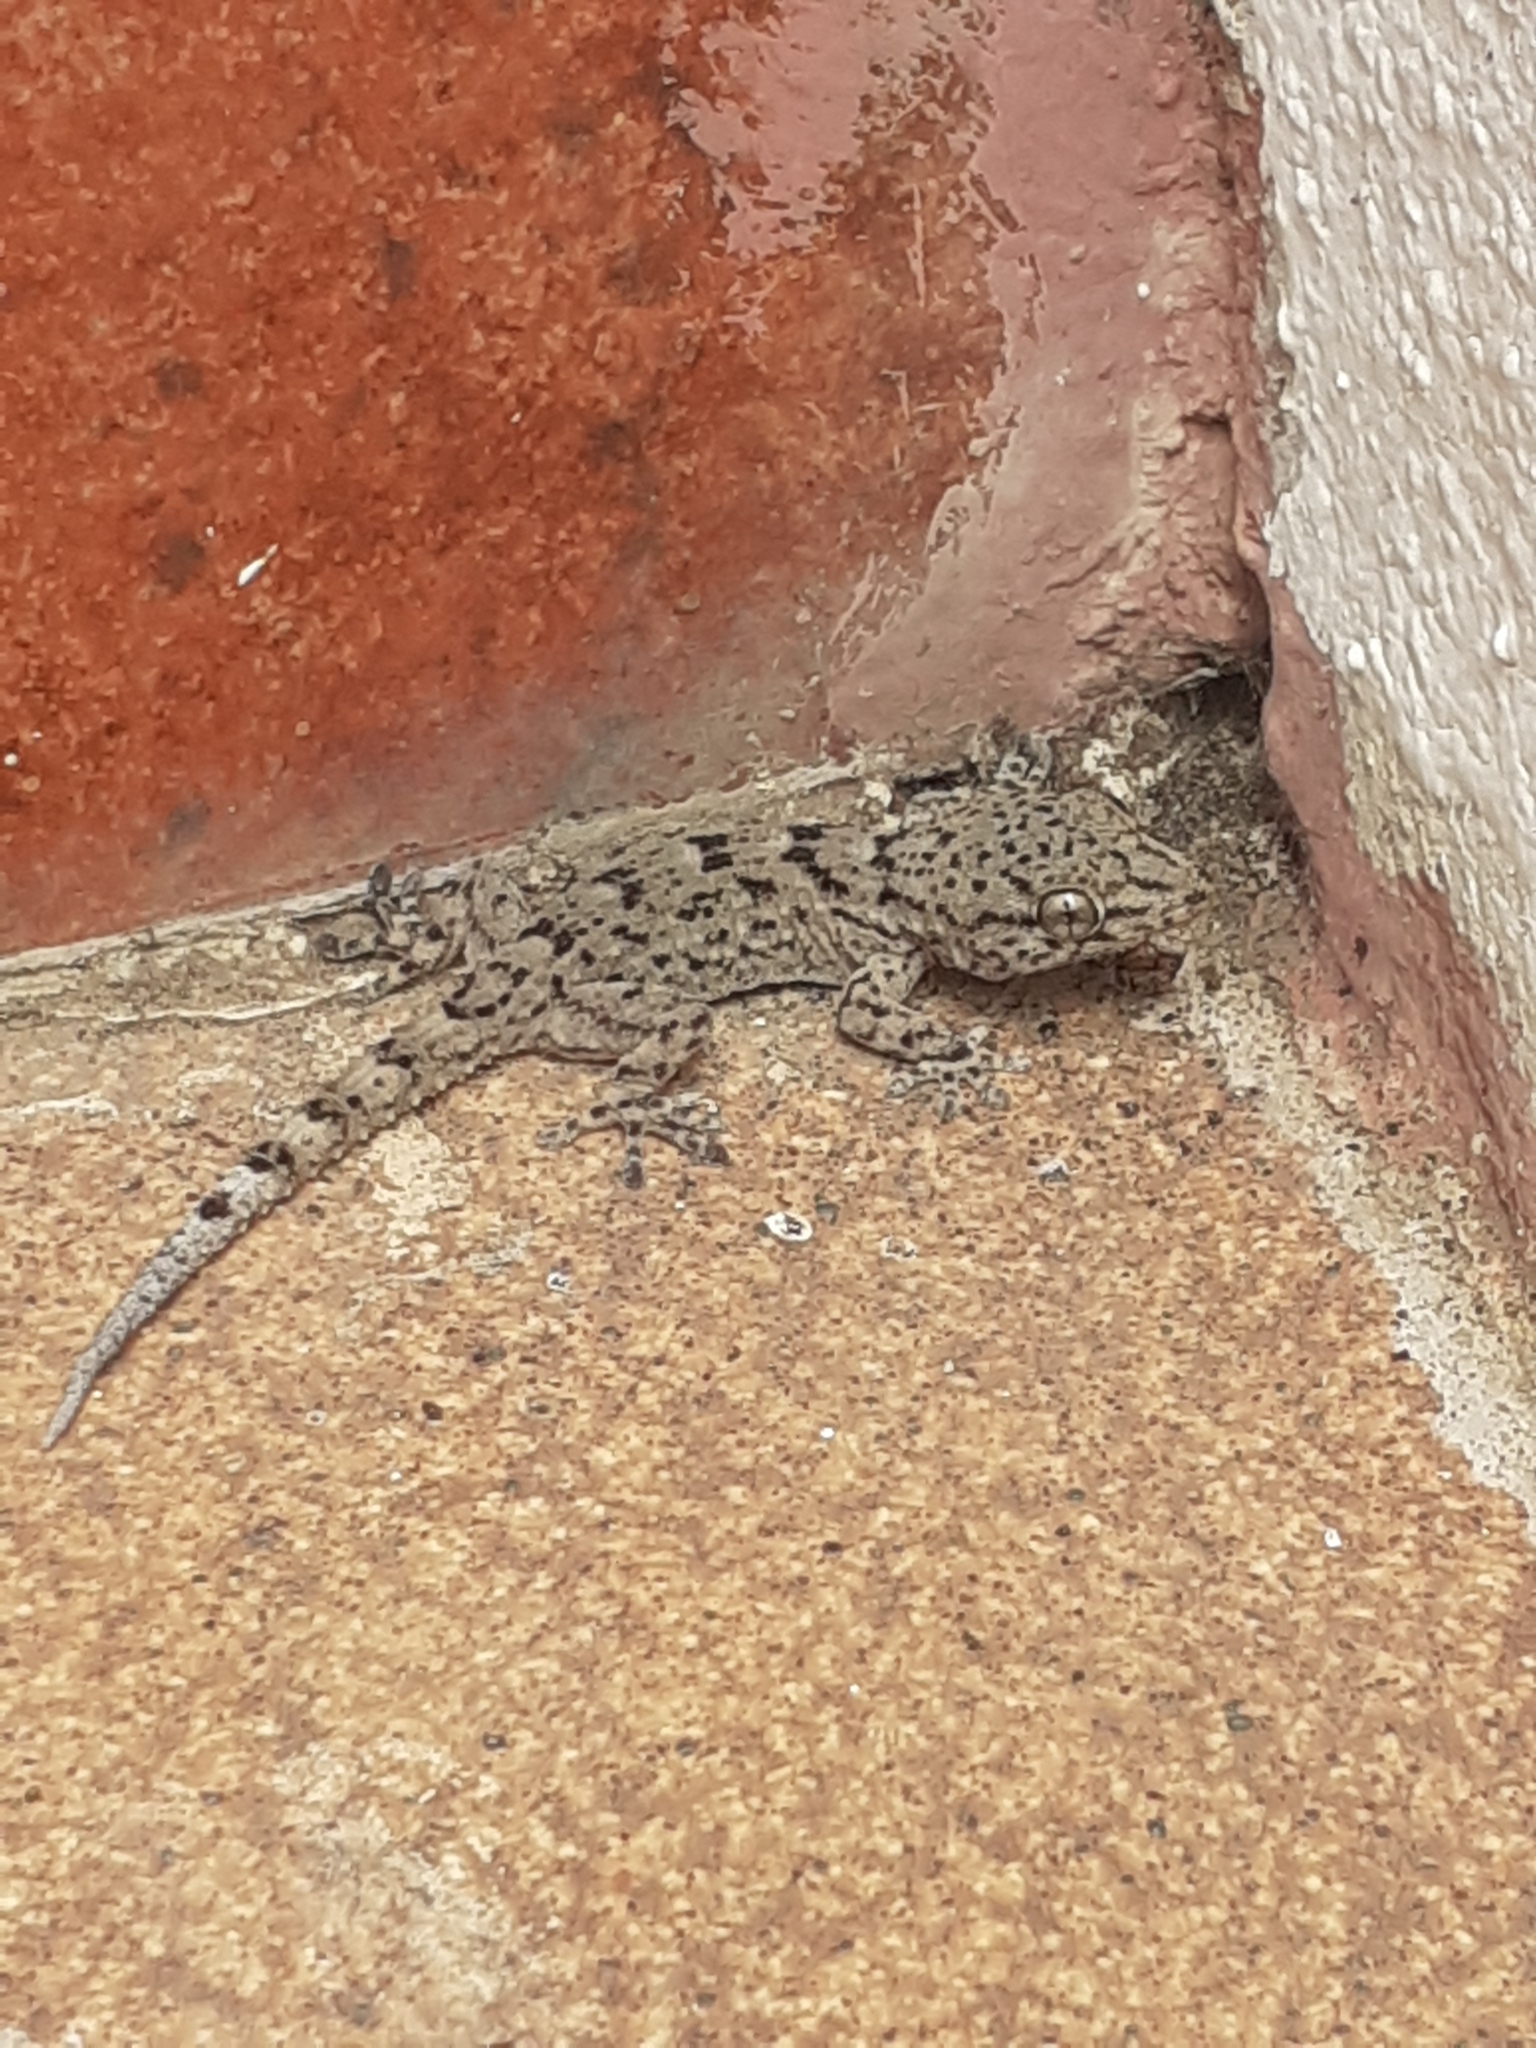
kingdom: Animalia
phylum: Chordata
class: Squamata
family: Phyllodactylidae
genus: Tarentola
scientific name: Tarentola delalandii
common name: Tenerife wall gecko
